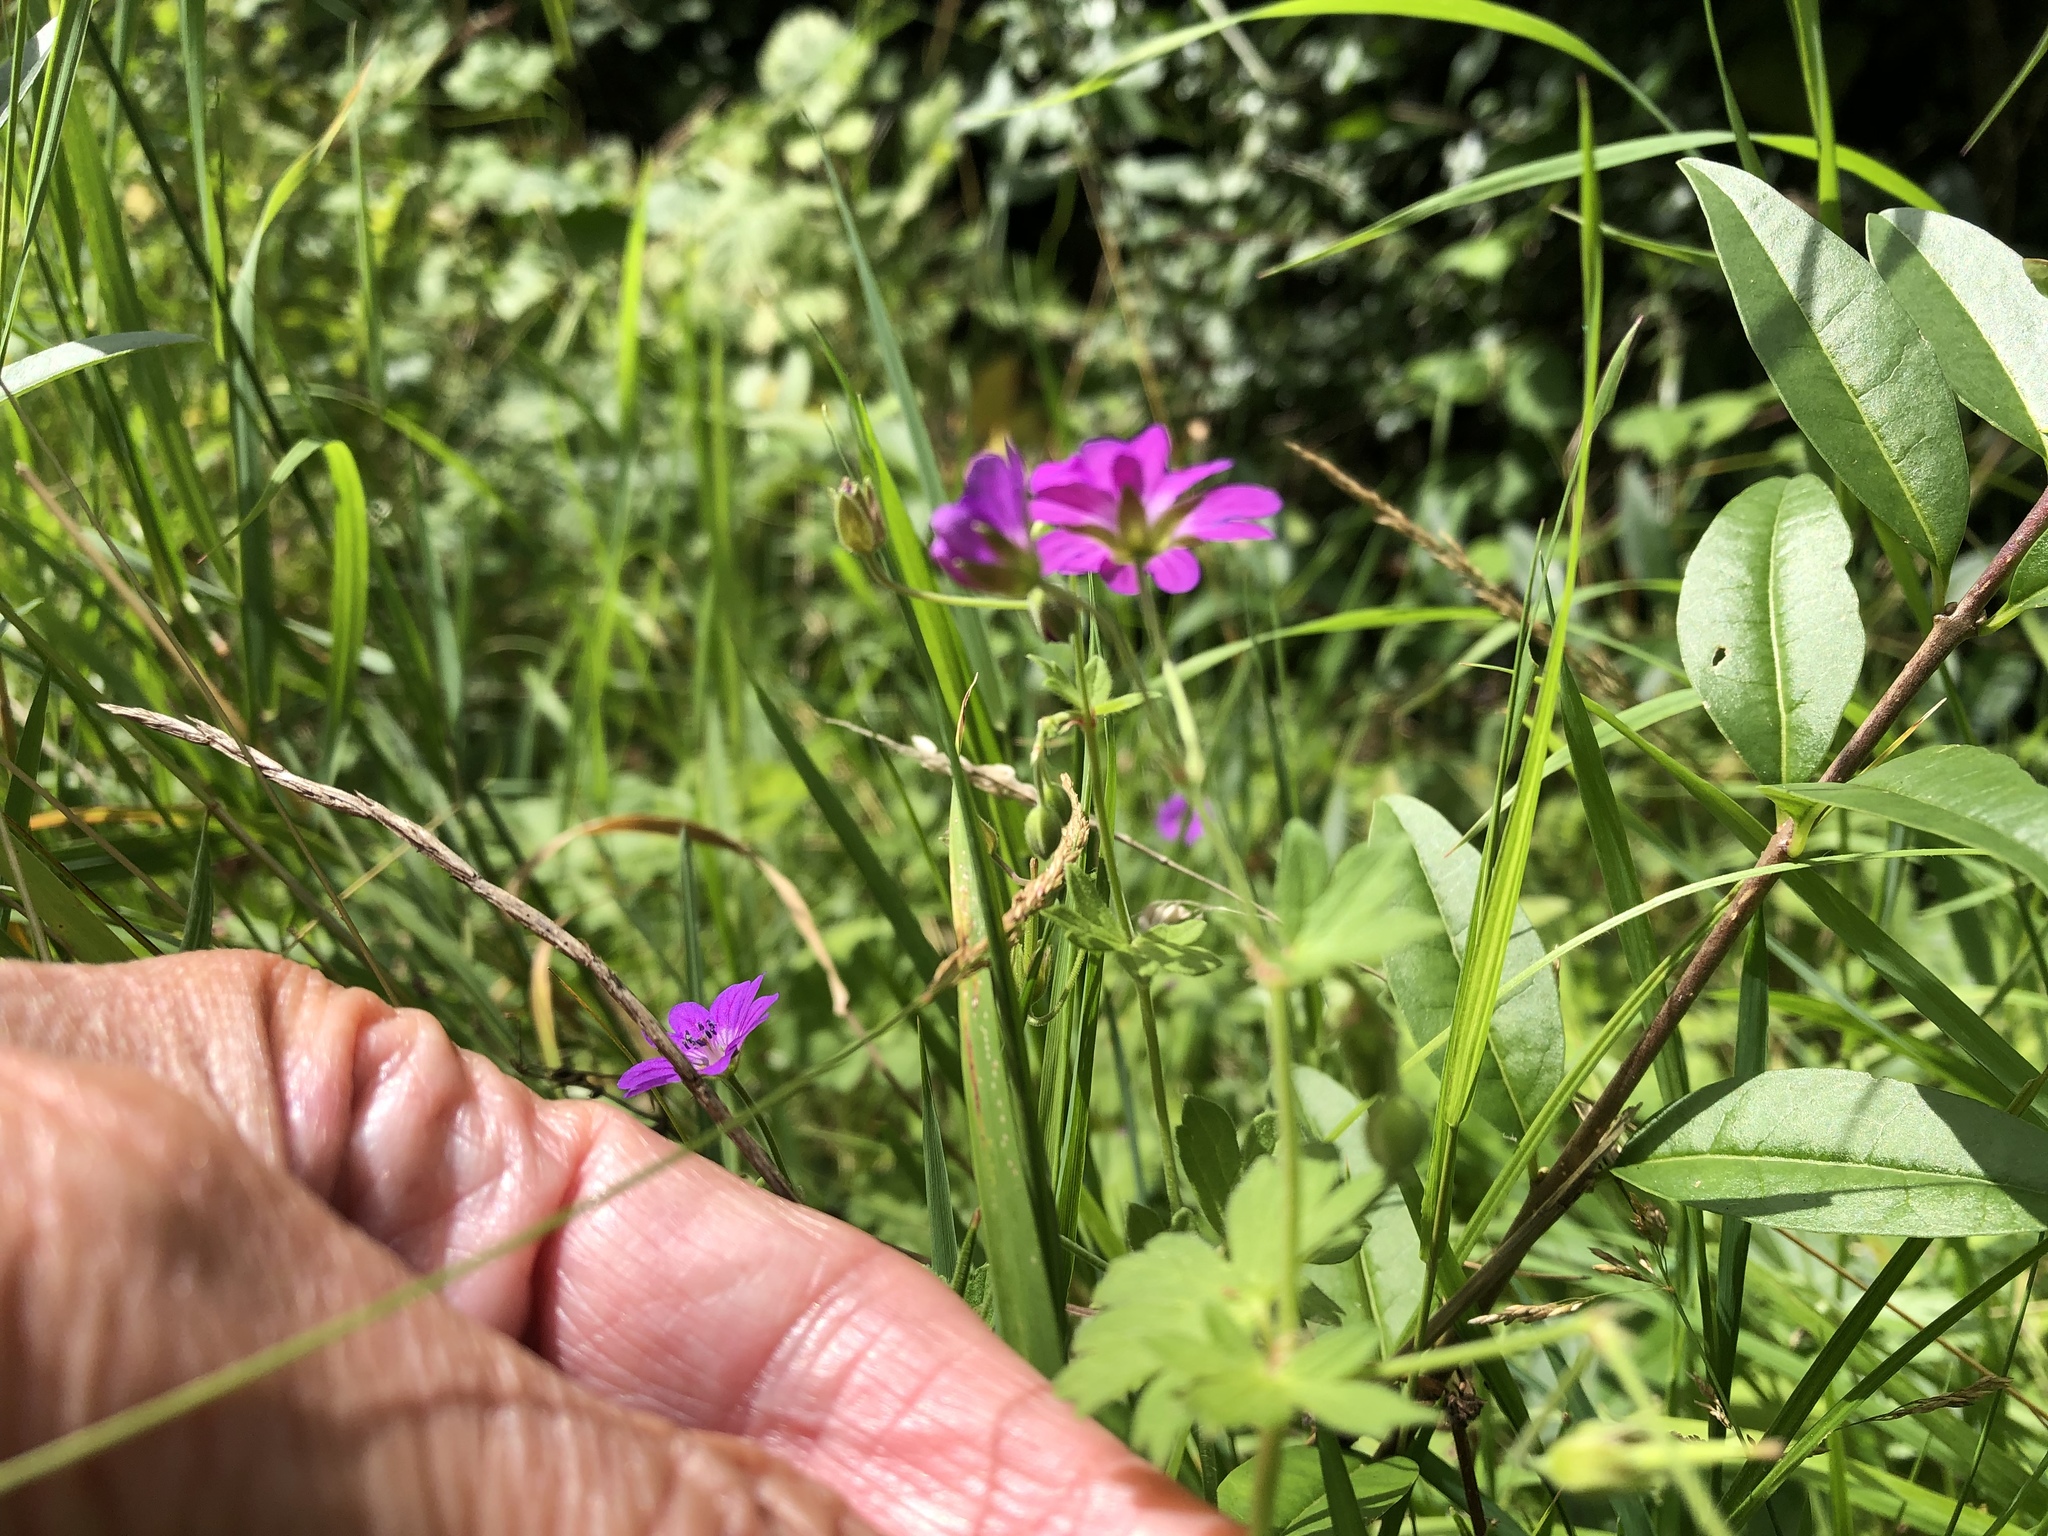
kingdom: Plantae
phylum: Tracheophyta
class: Magnoliopsida
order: Geraniales
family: Geraniaceae
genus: Geranium
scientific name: Geranium pyrenaicum
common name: Hedgerow crane's-bill
